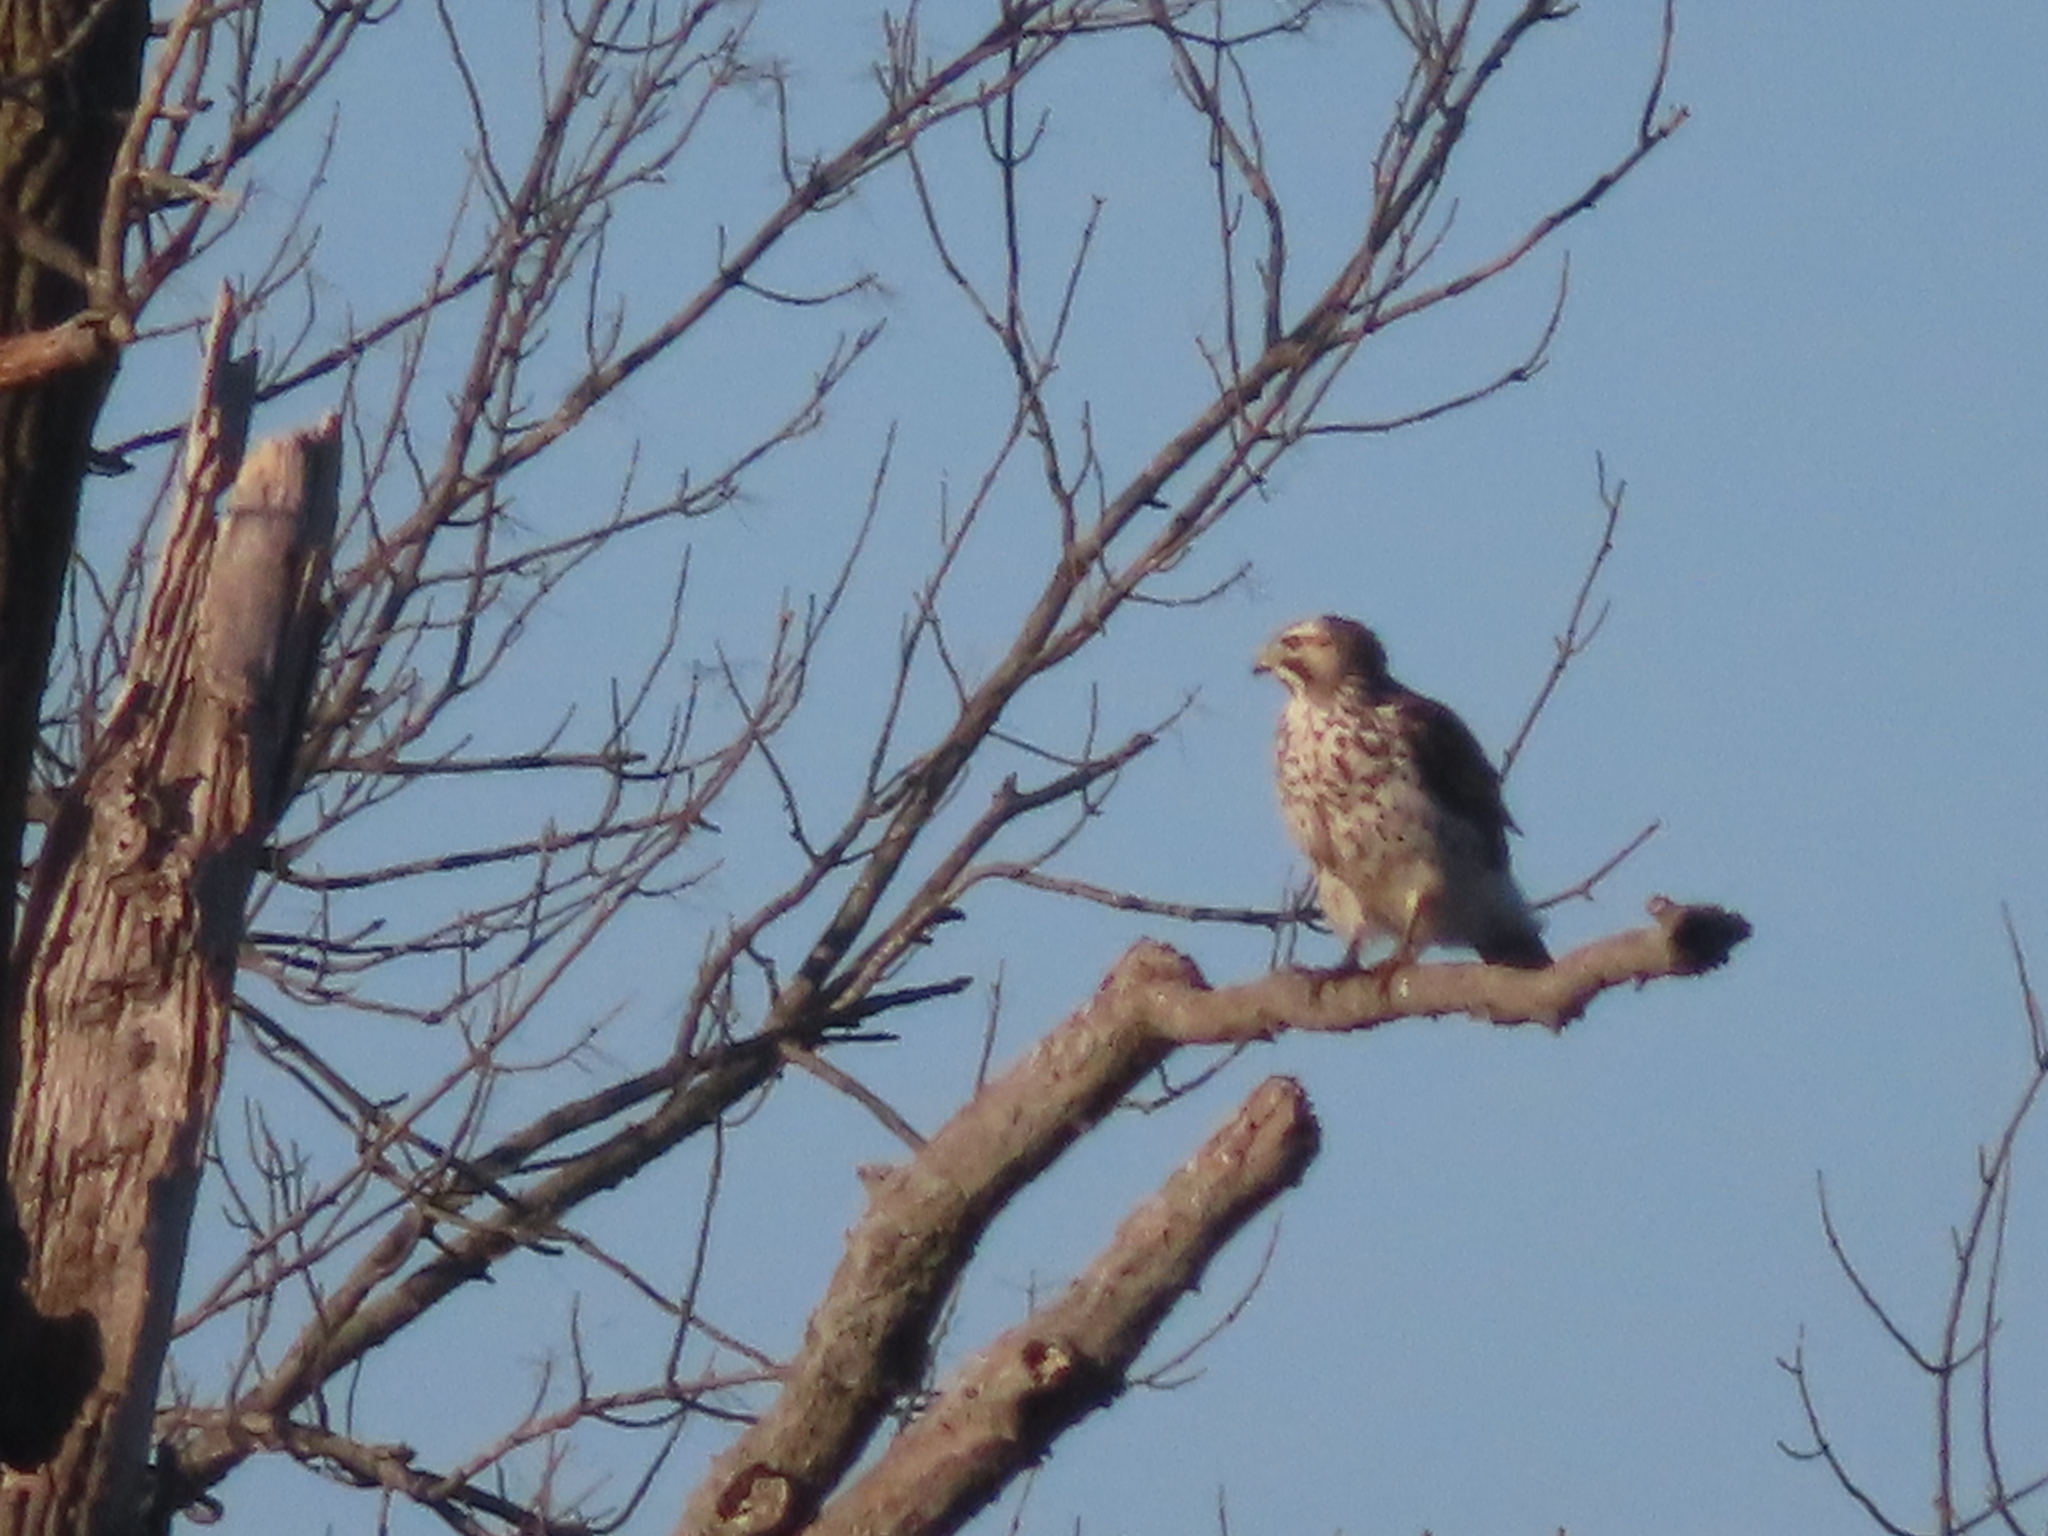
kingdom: Animalia
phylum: Chordata
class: Aves
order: Accipitriformes
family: Accipitridae
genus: Buteo
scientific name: Buteo lineatus
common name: Red-shouldered hawk
